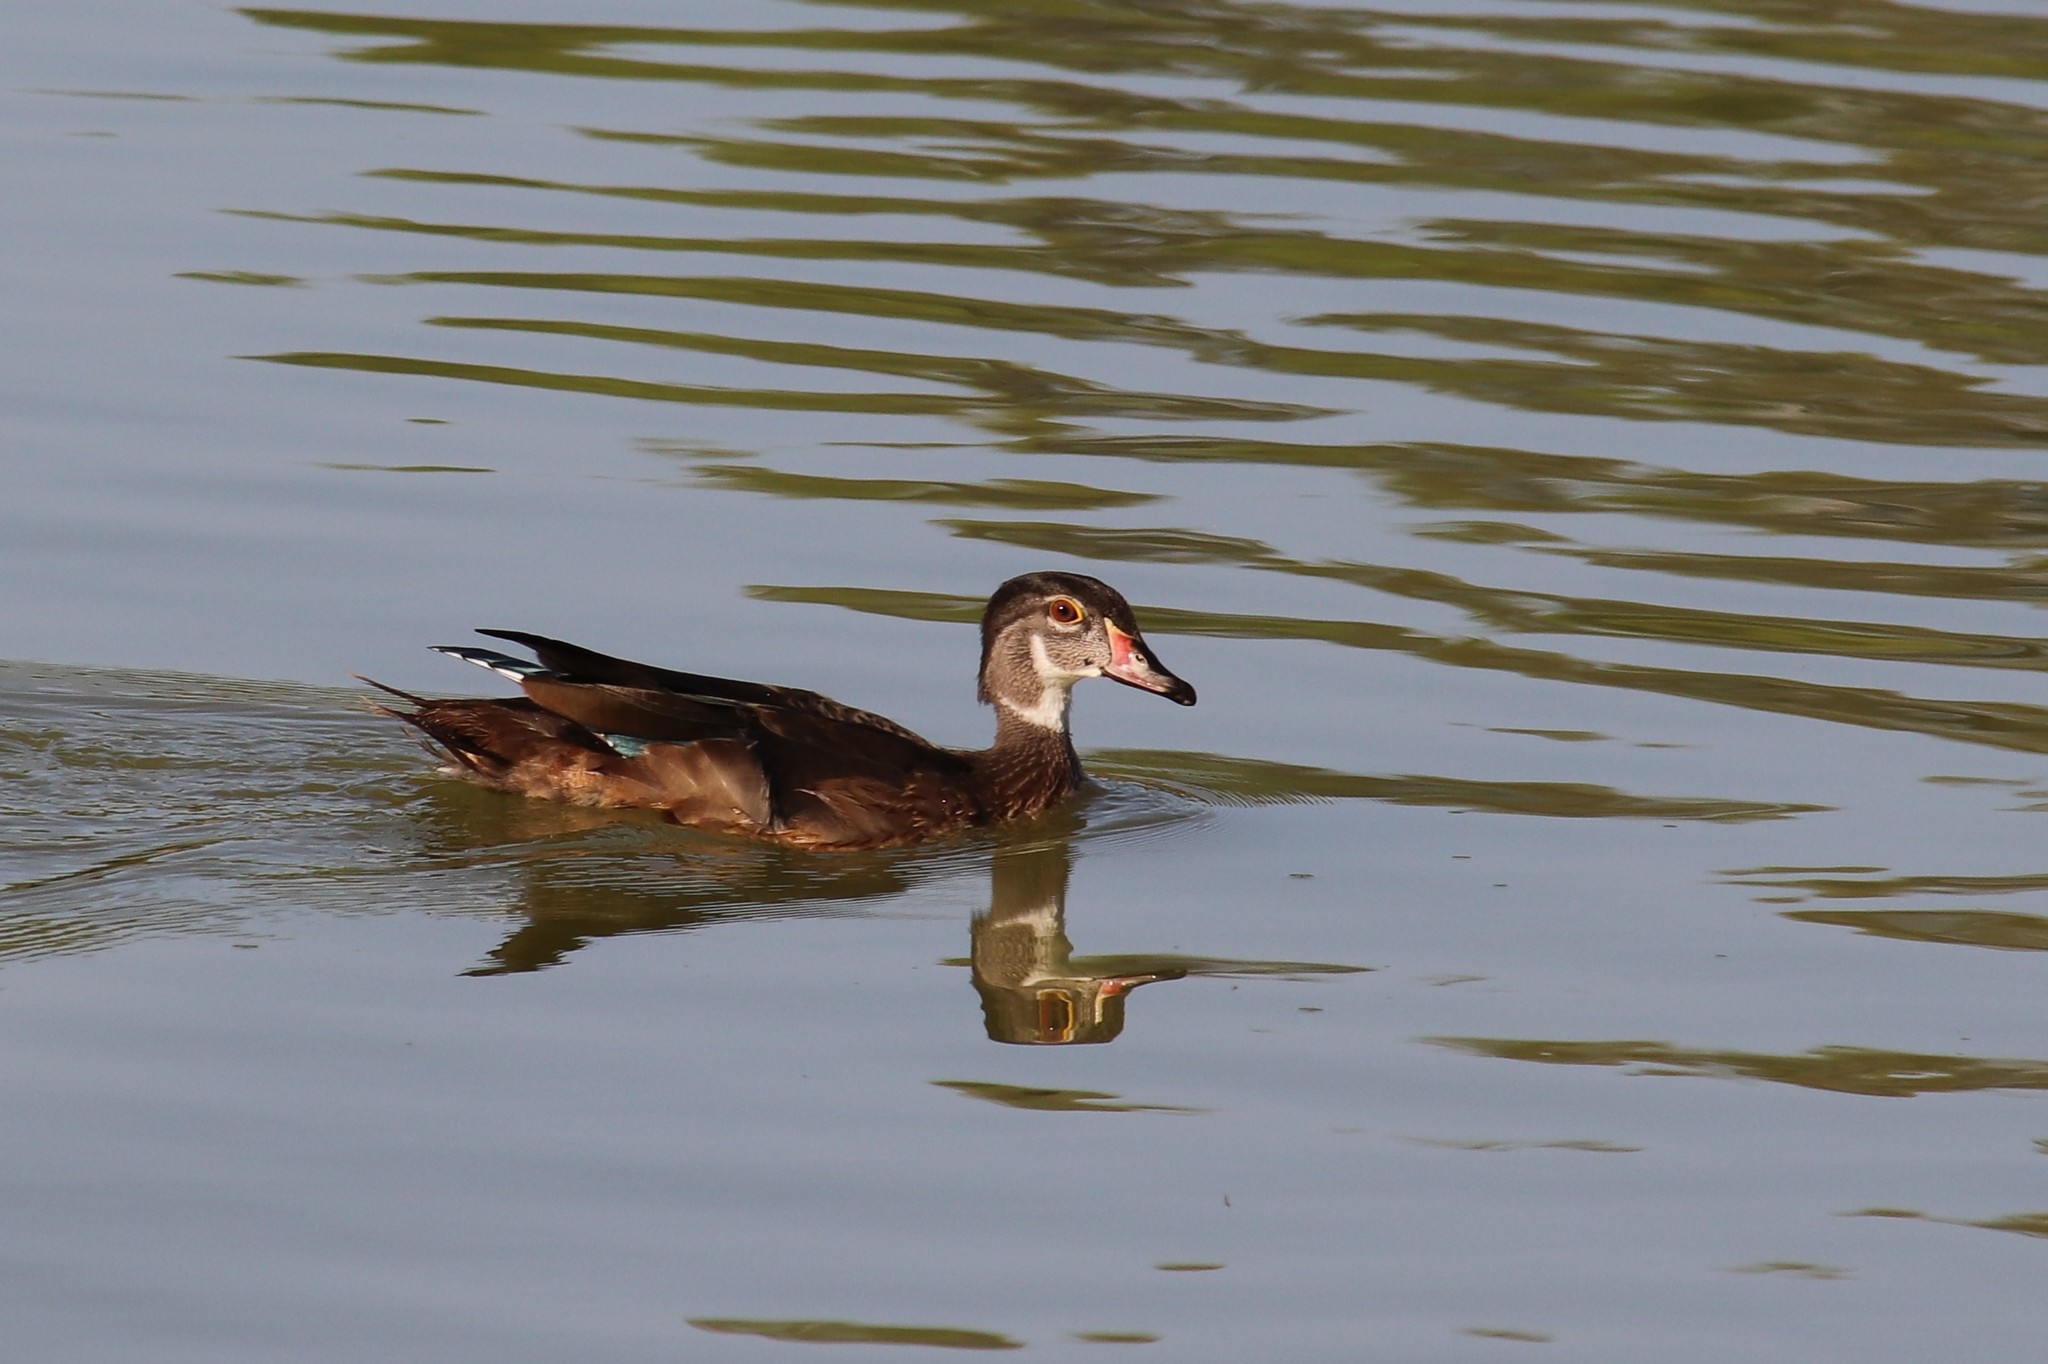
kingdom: Animalia
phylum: Chordata
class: Aves
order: Anseriformes
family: Anatidae
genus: Aix
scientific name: Aix sponsa
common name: Wood duck
